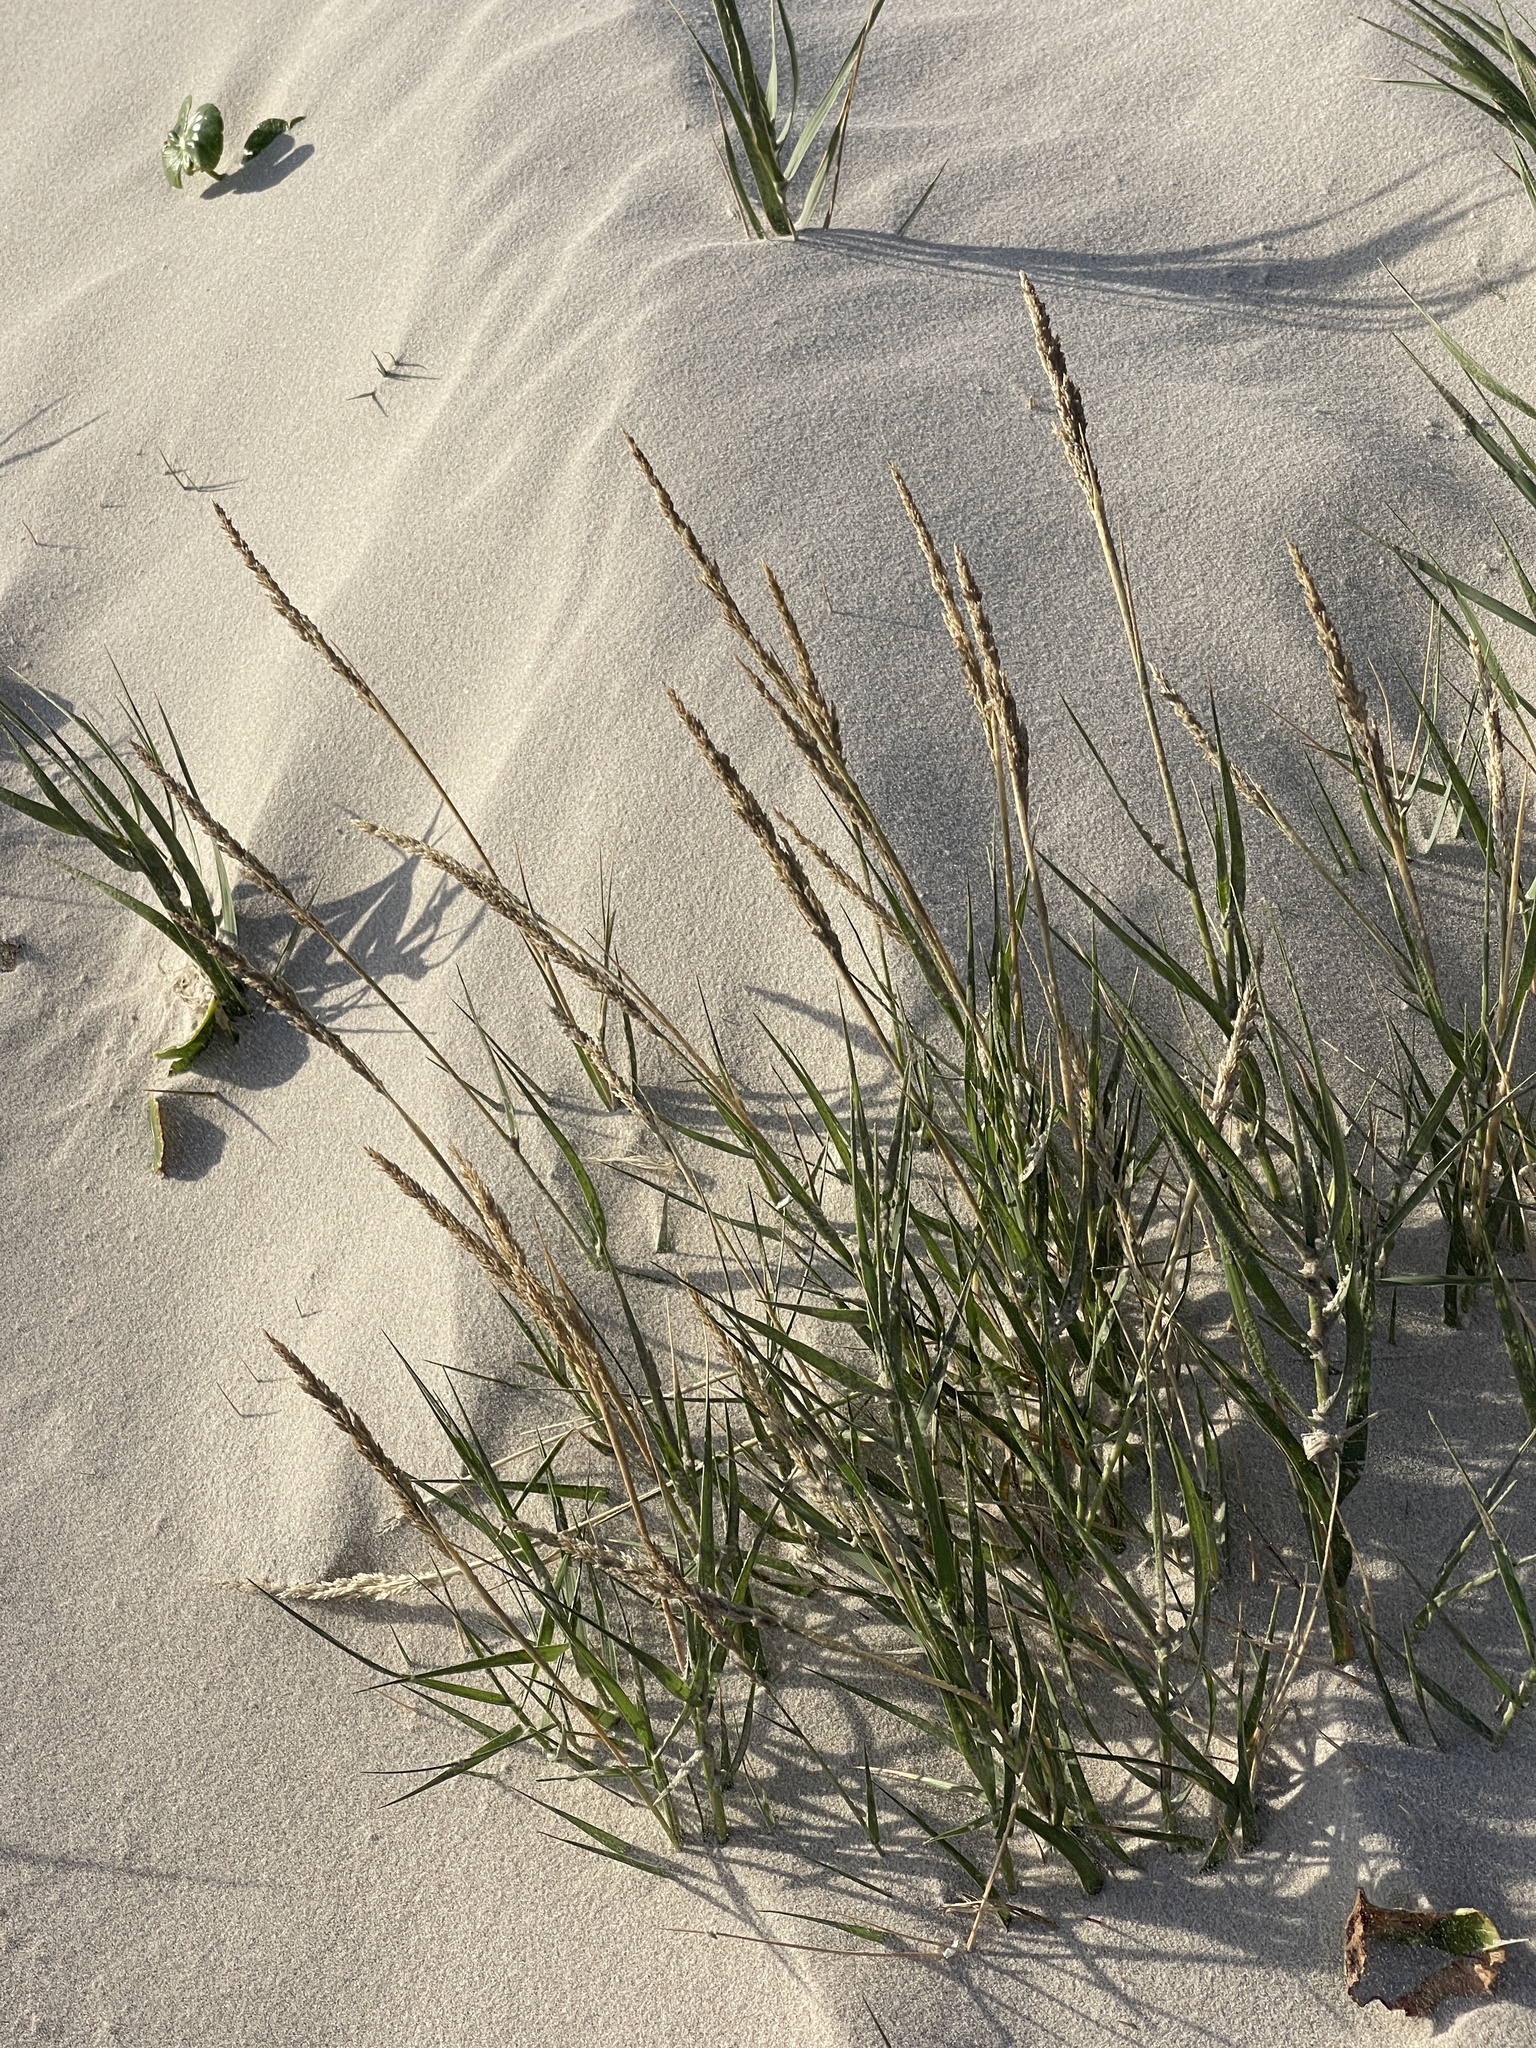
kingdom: Plantae
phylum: Tracheophyta
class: Liliopsida
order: Poales
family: Poaceae
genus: Sporobolus
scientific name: Sporobolus virginicus
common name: Beach dropseed
